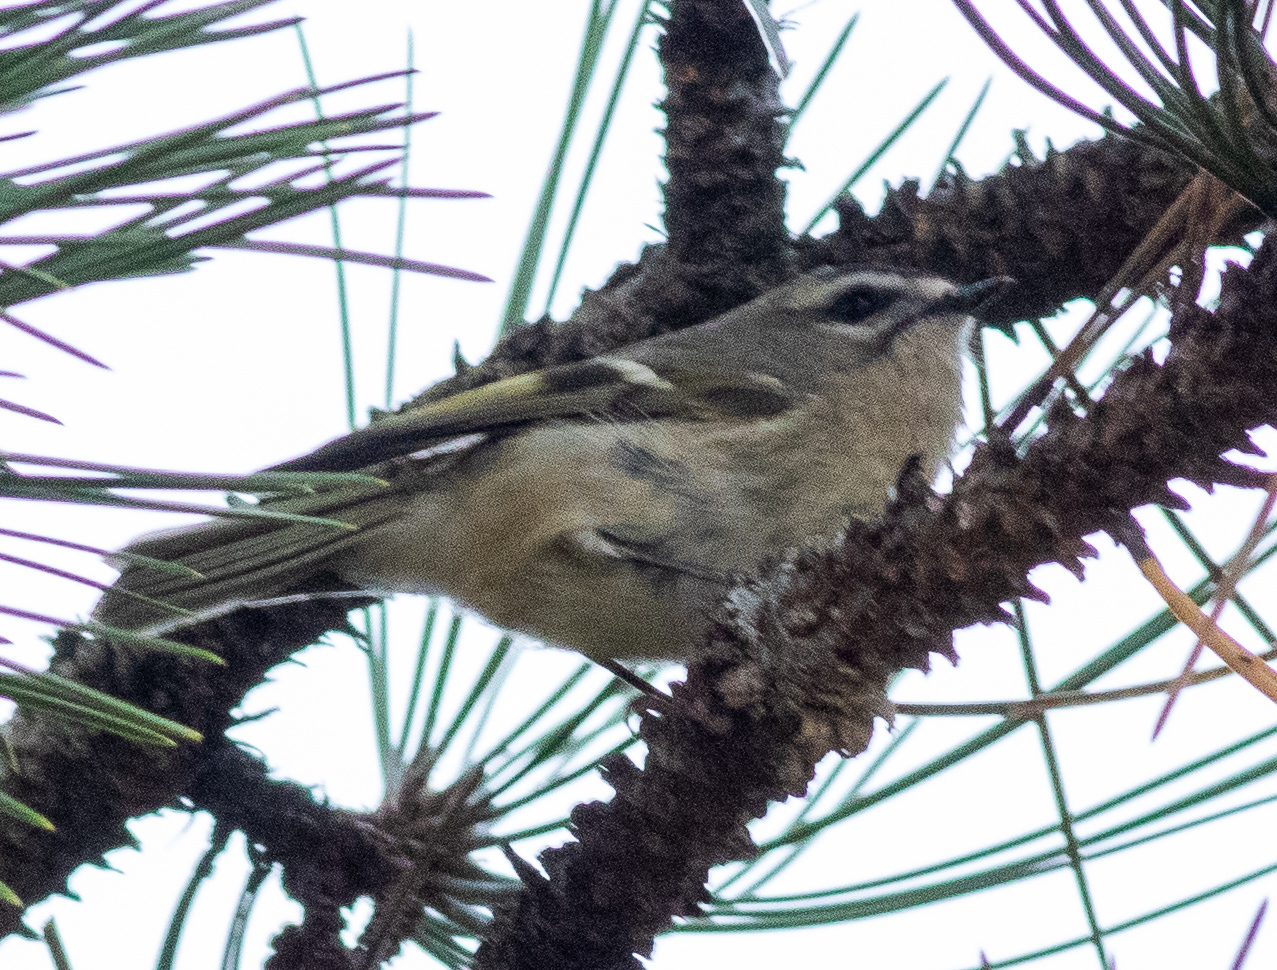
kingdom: Animalia
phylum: Chordata
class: Aves
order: Passeriformes
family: Regulidae
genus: Regulus
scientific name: Regulus satrapa
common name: Golden-crowned kinglet
